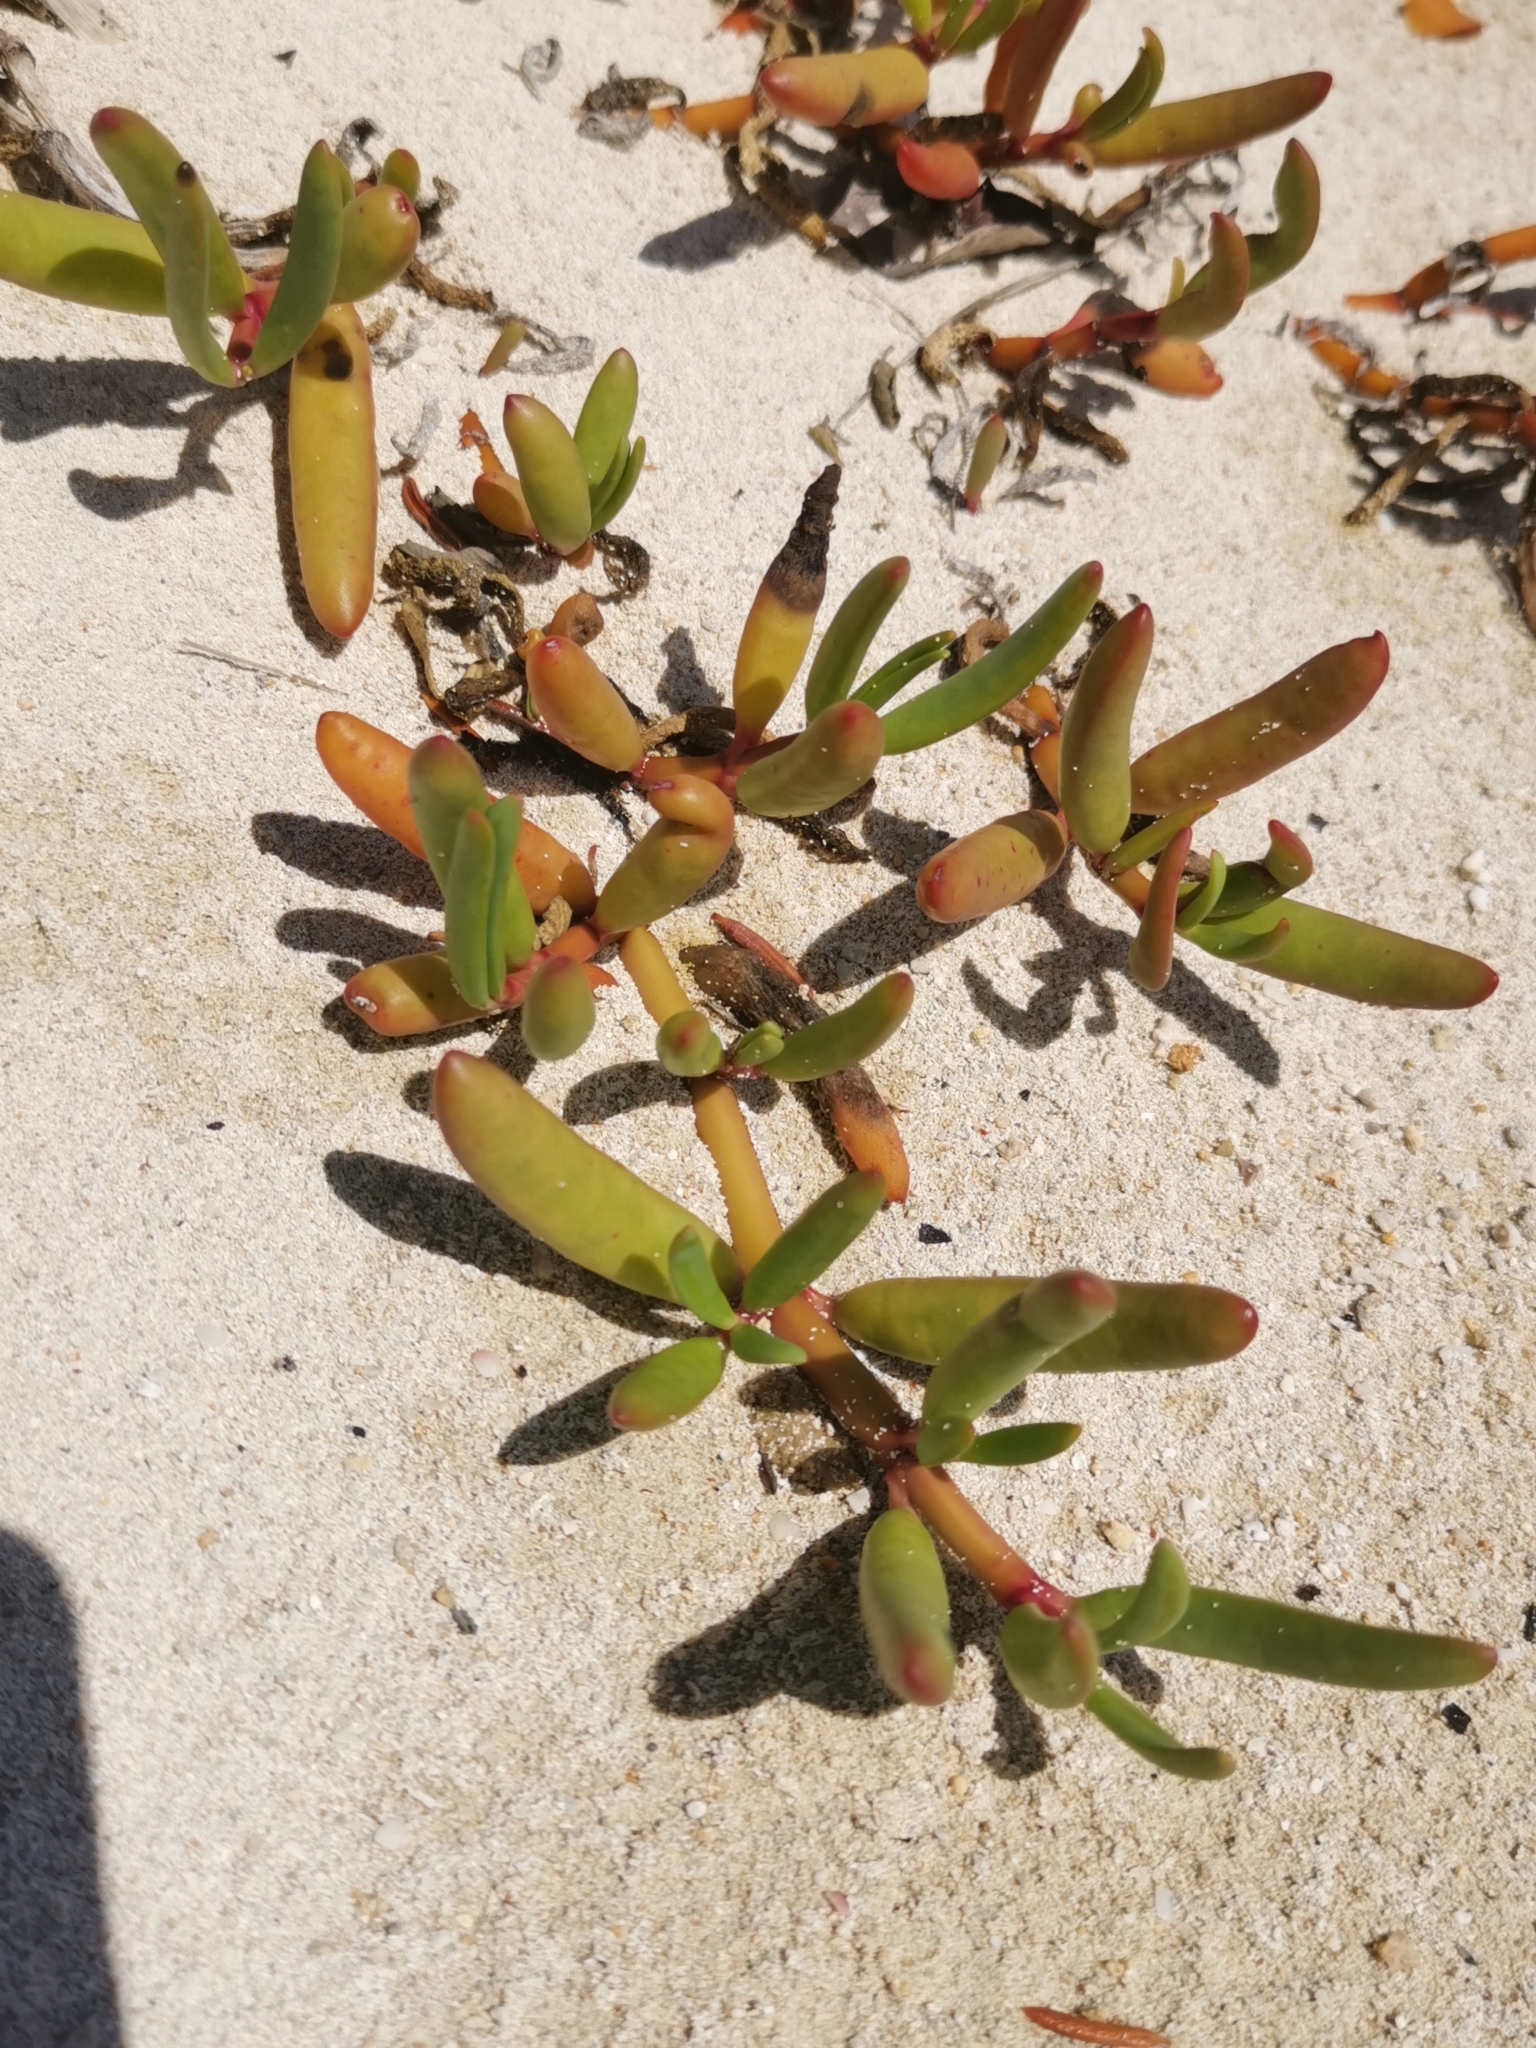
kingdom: Plantae
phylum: Tracheophyta
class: Magnoliopsida
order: Caryophyllales
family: Aizoaceae
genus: Sesuvium
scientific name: Sesuvium portulacastrum
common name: Sea-purslane
